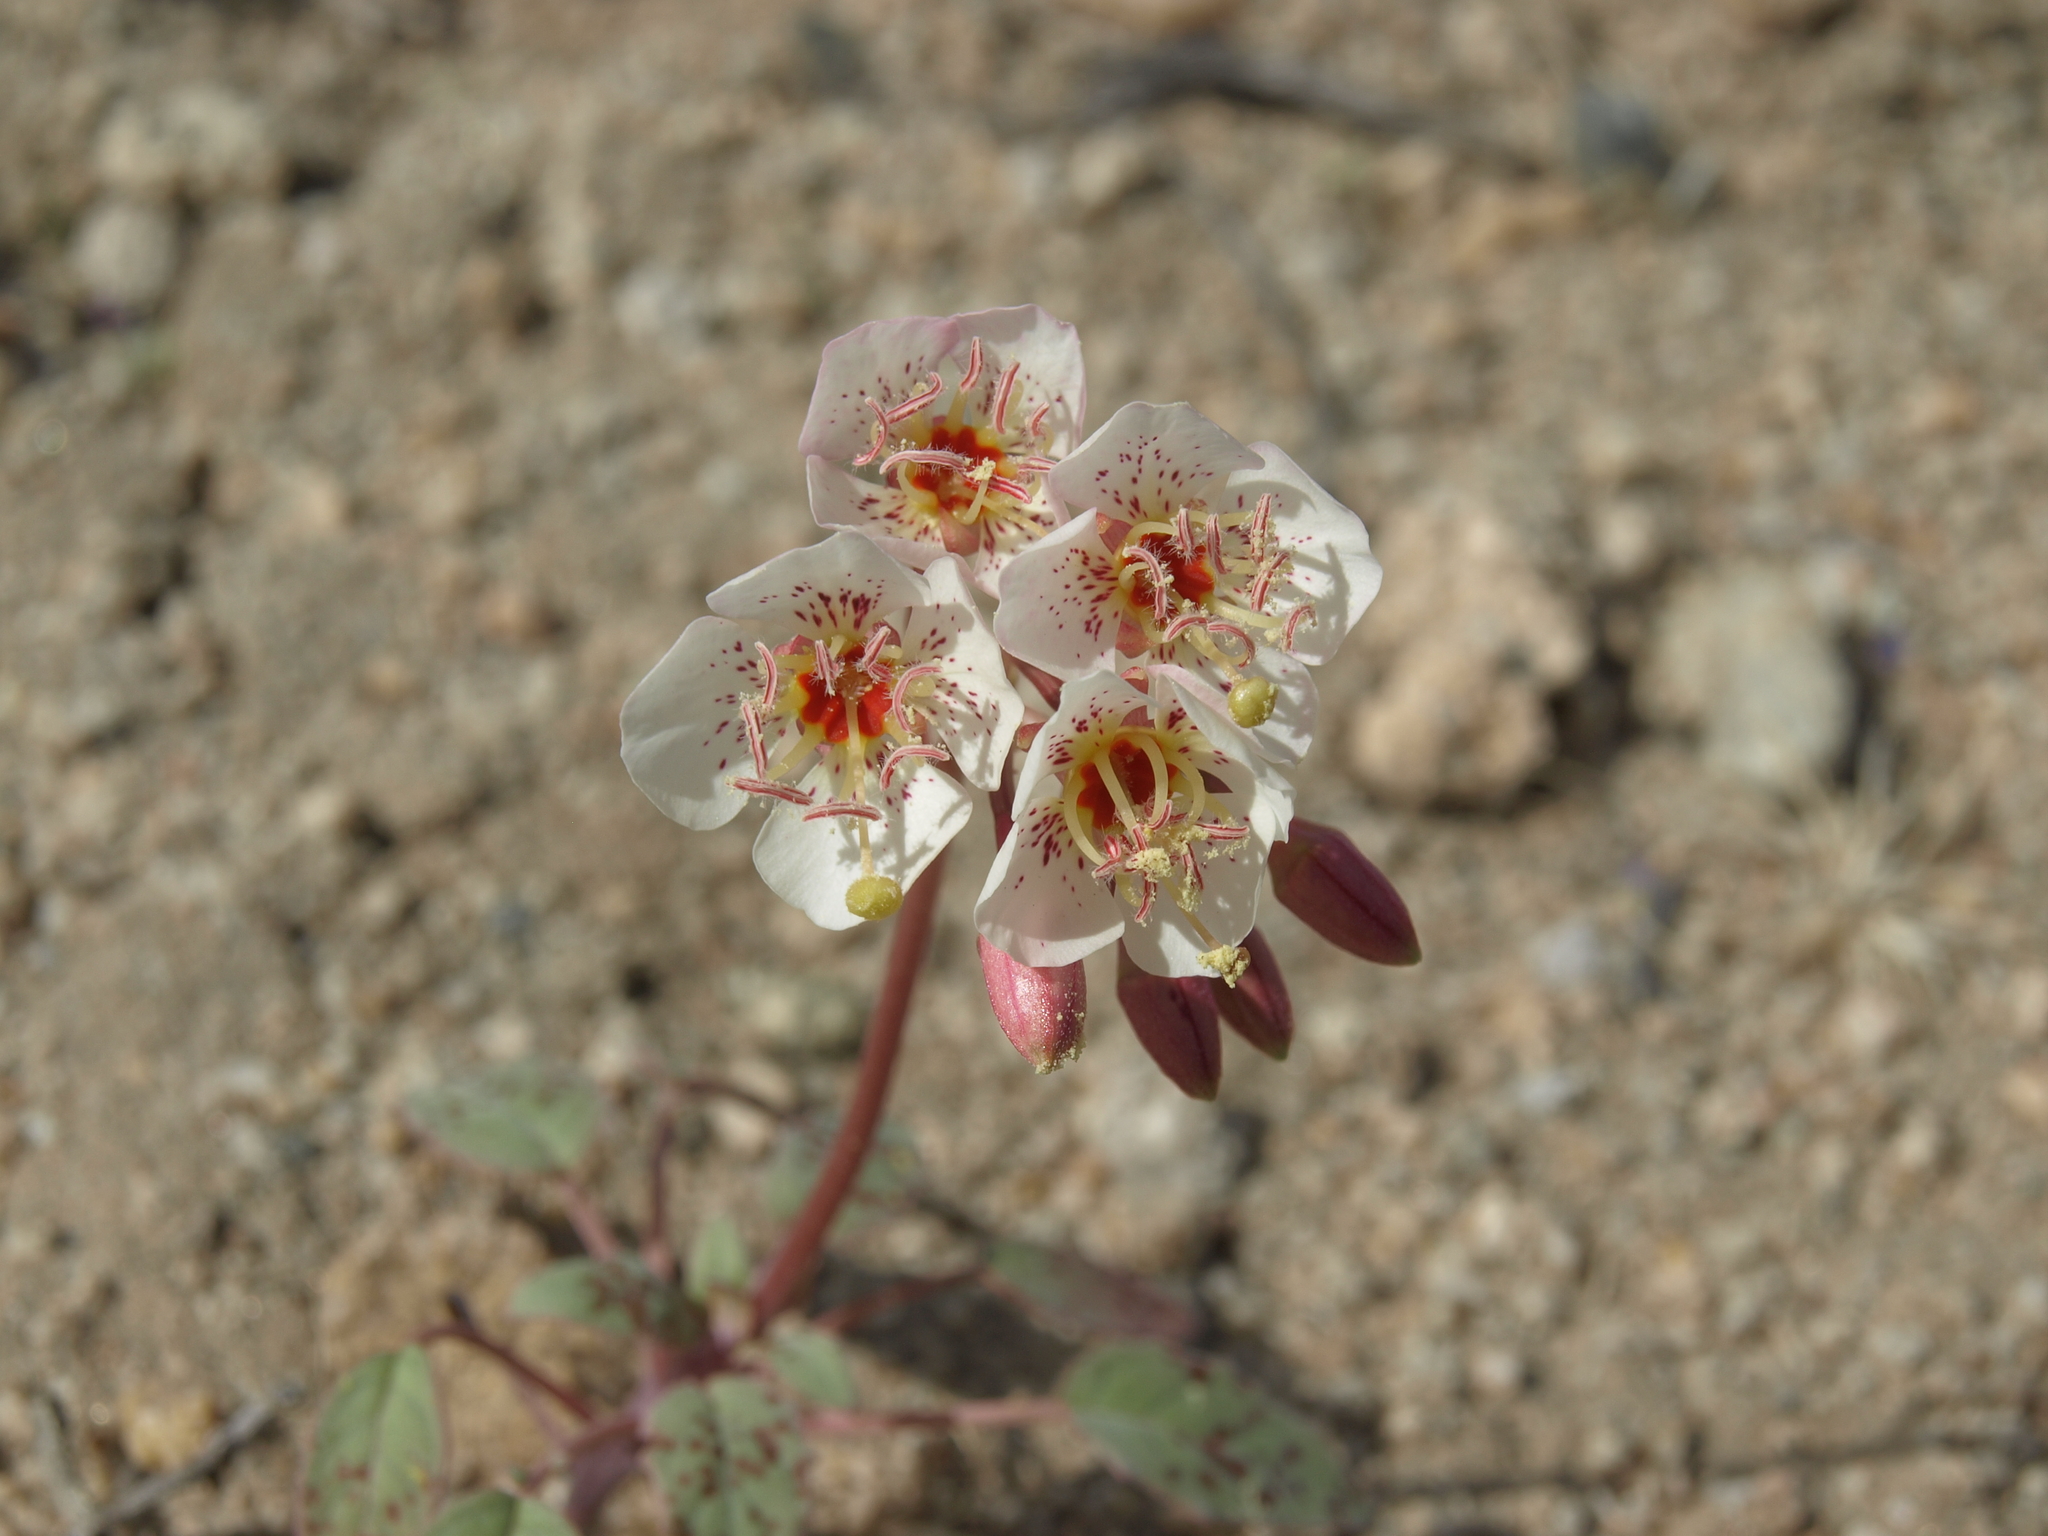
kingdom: Plantae
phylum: Tracheophyta
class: Magnoliopsida
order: Myrtales
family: Onagraceae
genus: Chylismia
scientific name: Chylismia claviformis
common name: Browneyes
